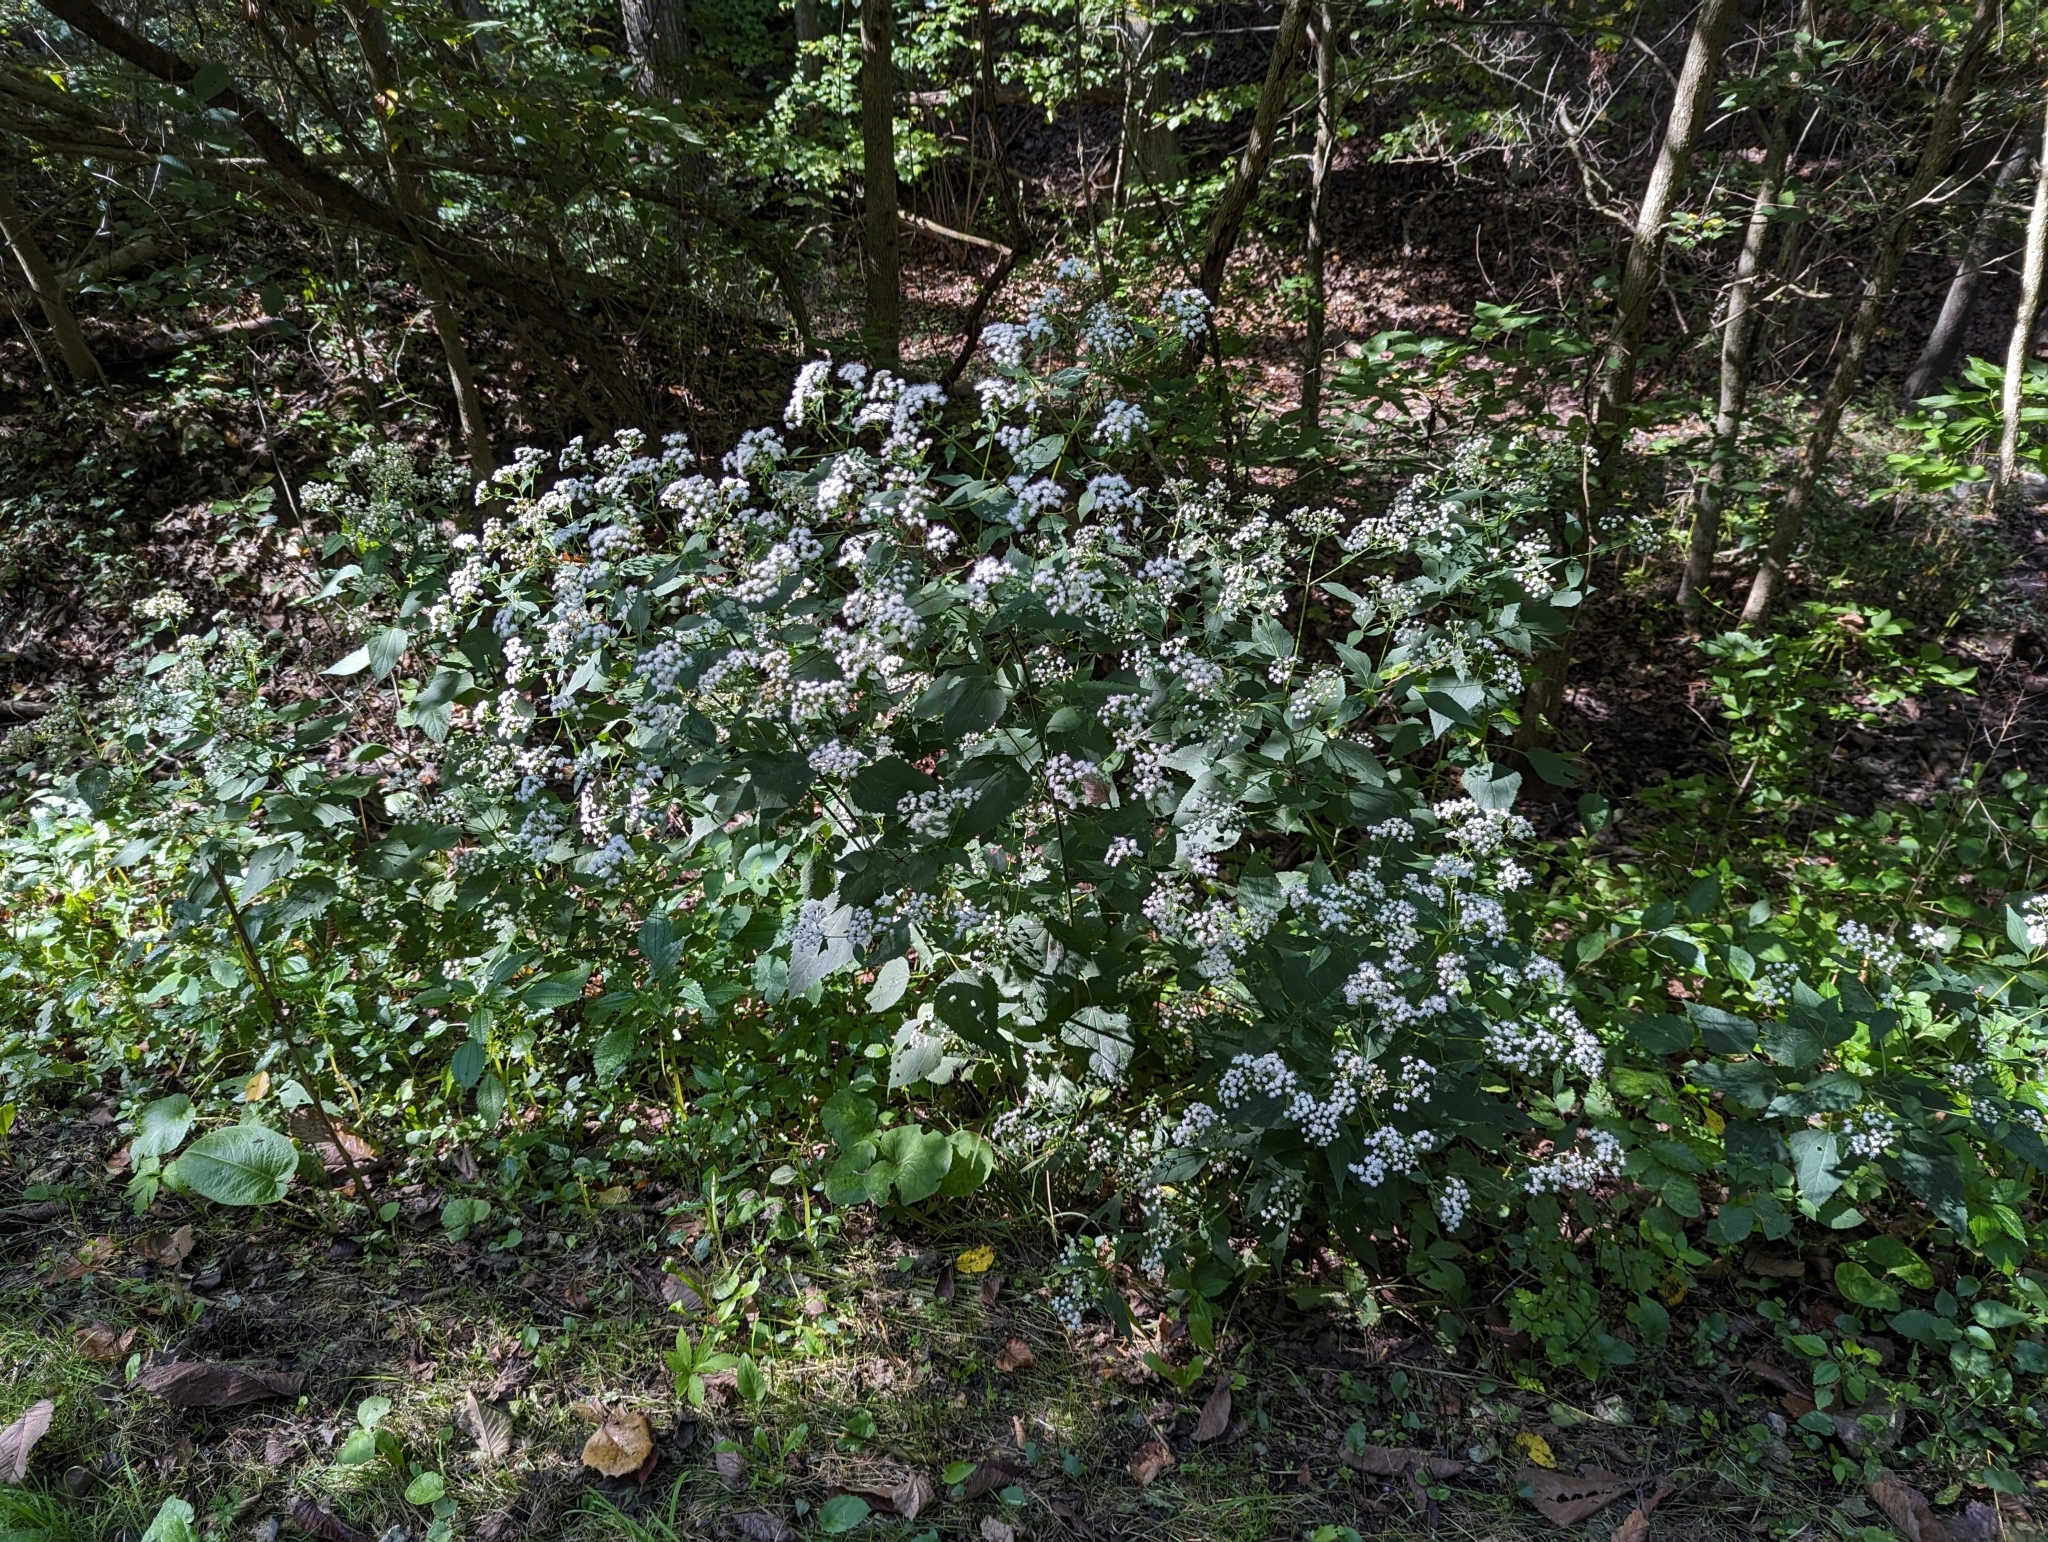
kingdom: Plantae
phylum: Tracheophyta
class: Magnoliopsida
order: Asterales
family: Asteraceae
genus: Ageratina
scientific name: Ageratina altissima
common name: White snakeroot
